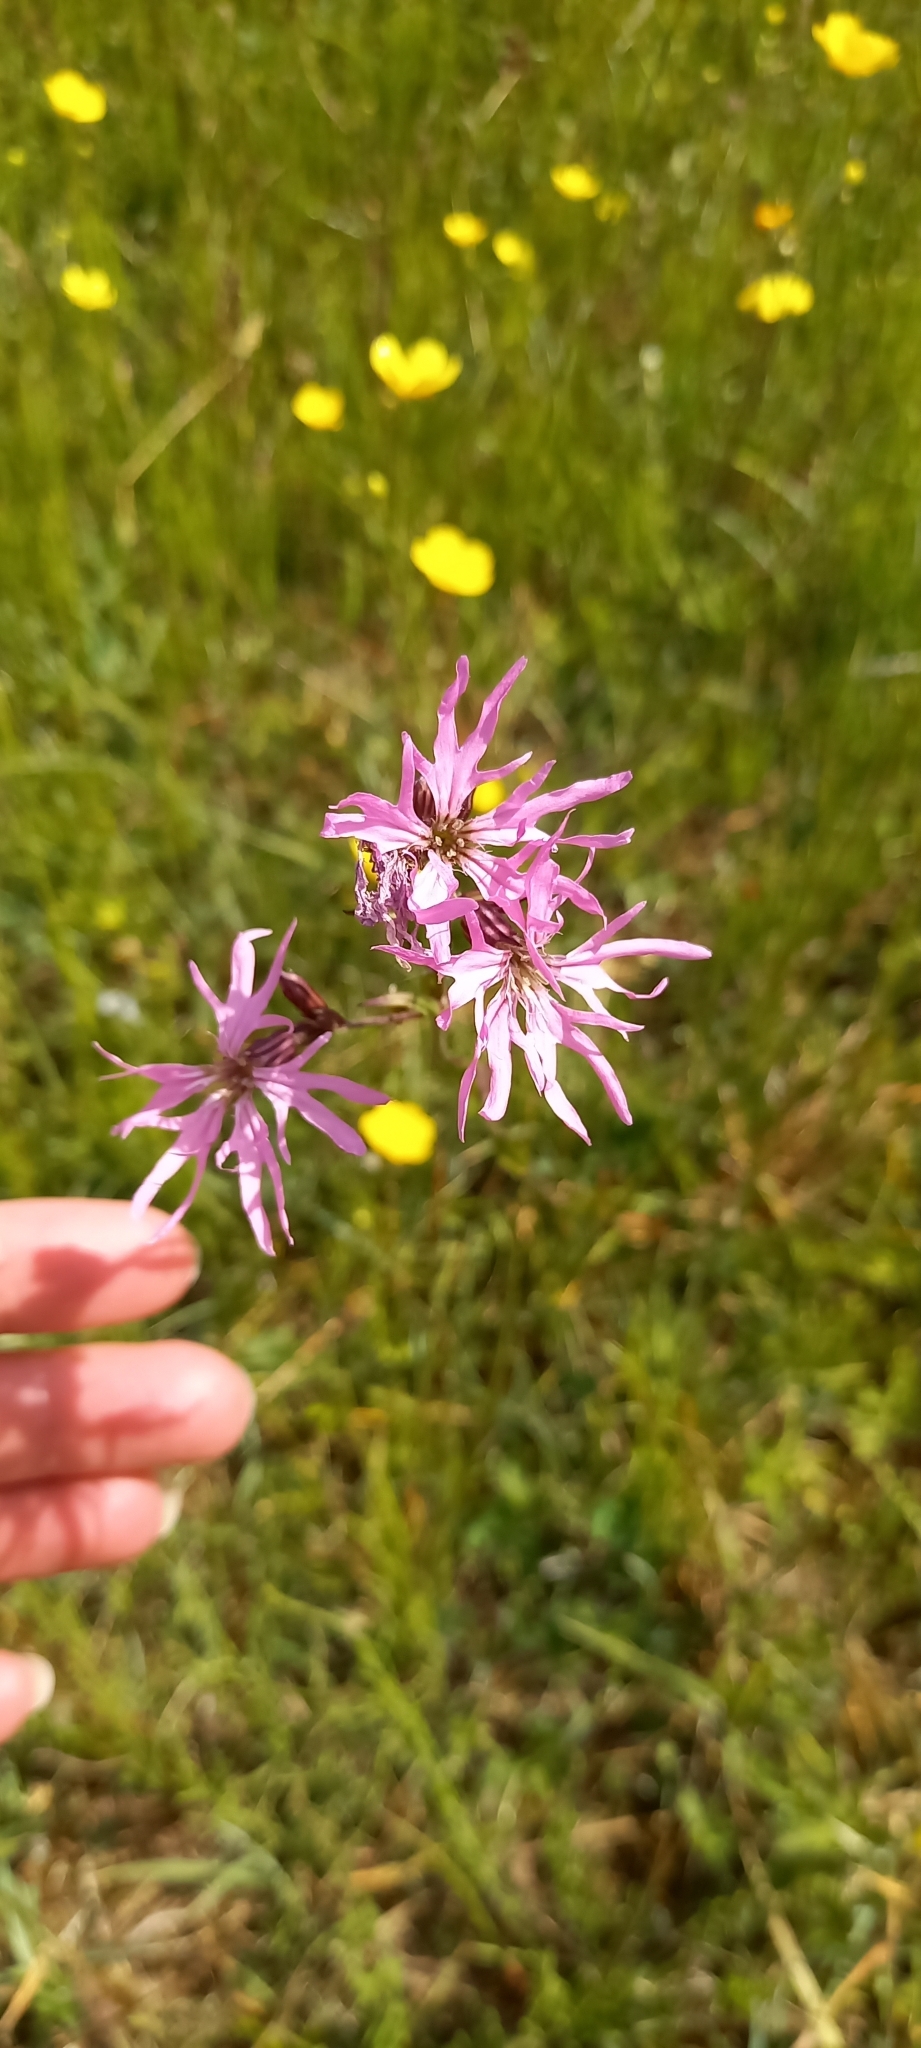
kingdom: Plantae
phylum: Tracheophyta
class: Magnoliopsida
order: Caryophyllales
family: Caryophyllaceae
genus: Silene
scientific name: Silene flos-cuculi
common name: Ragged-robin
